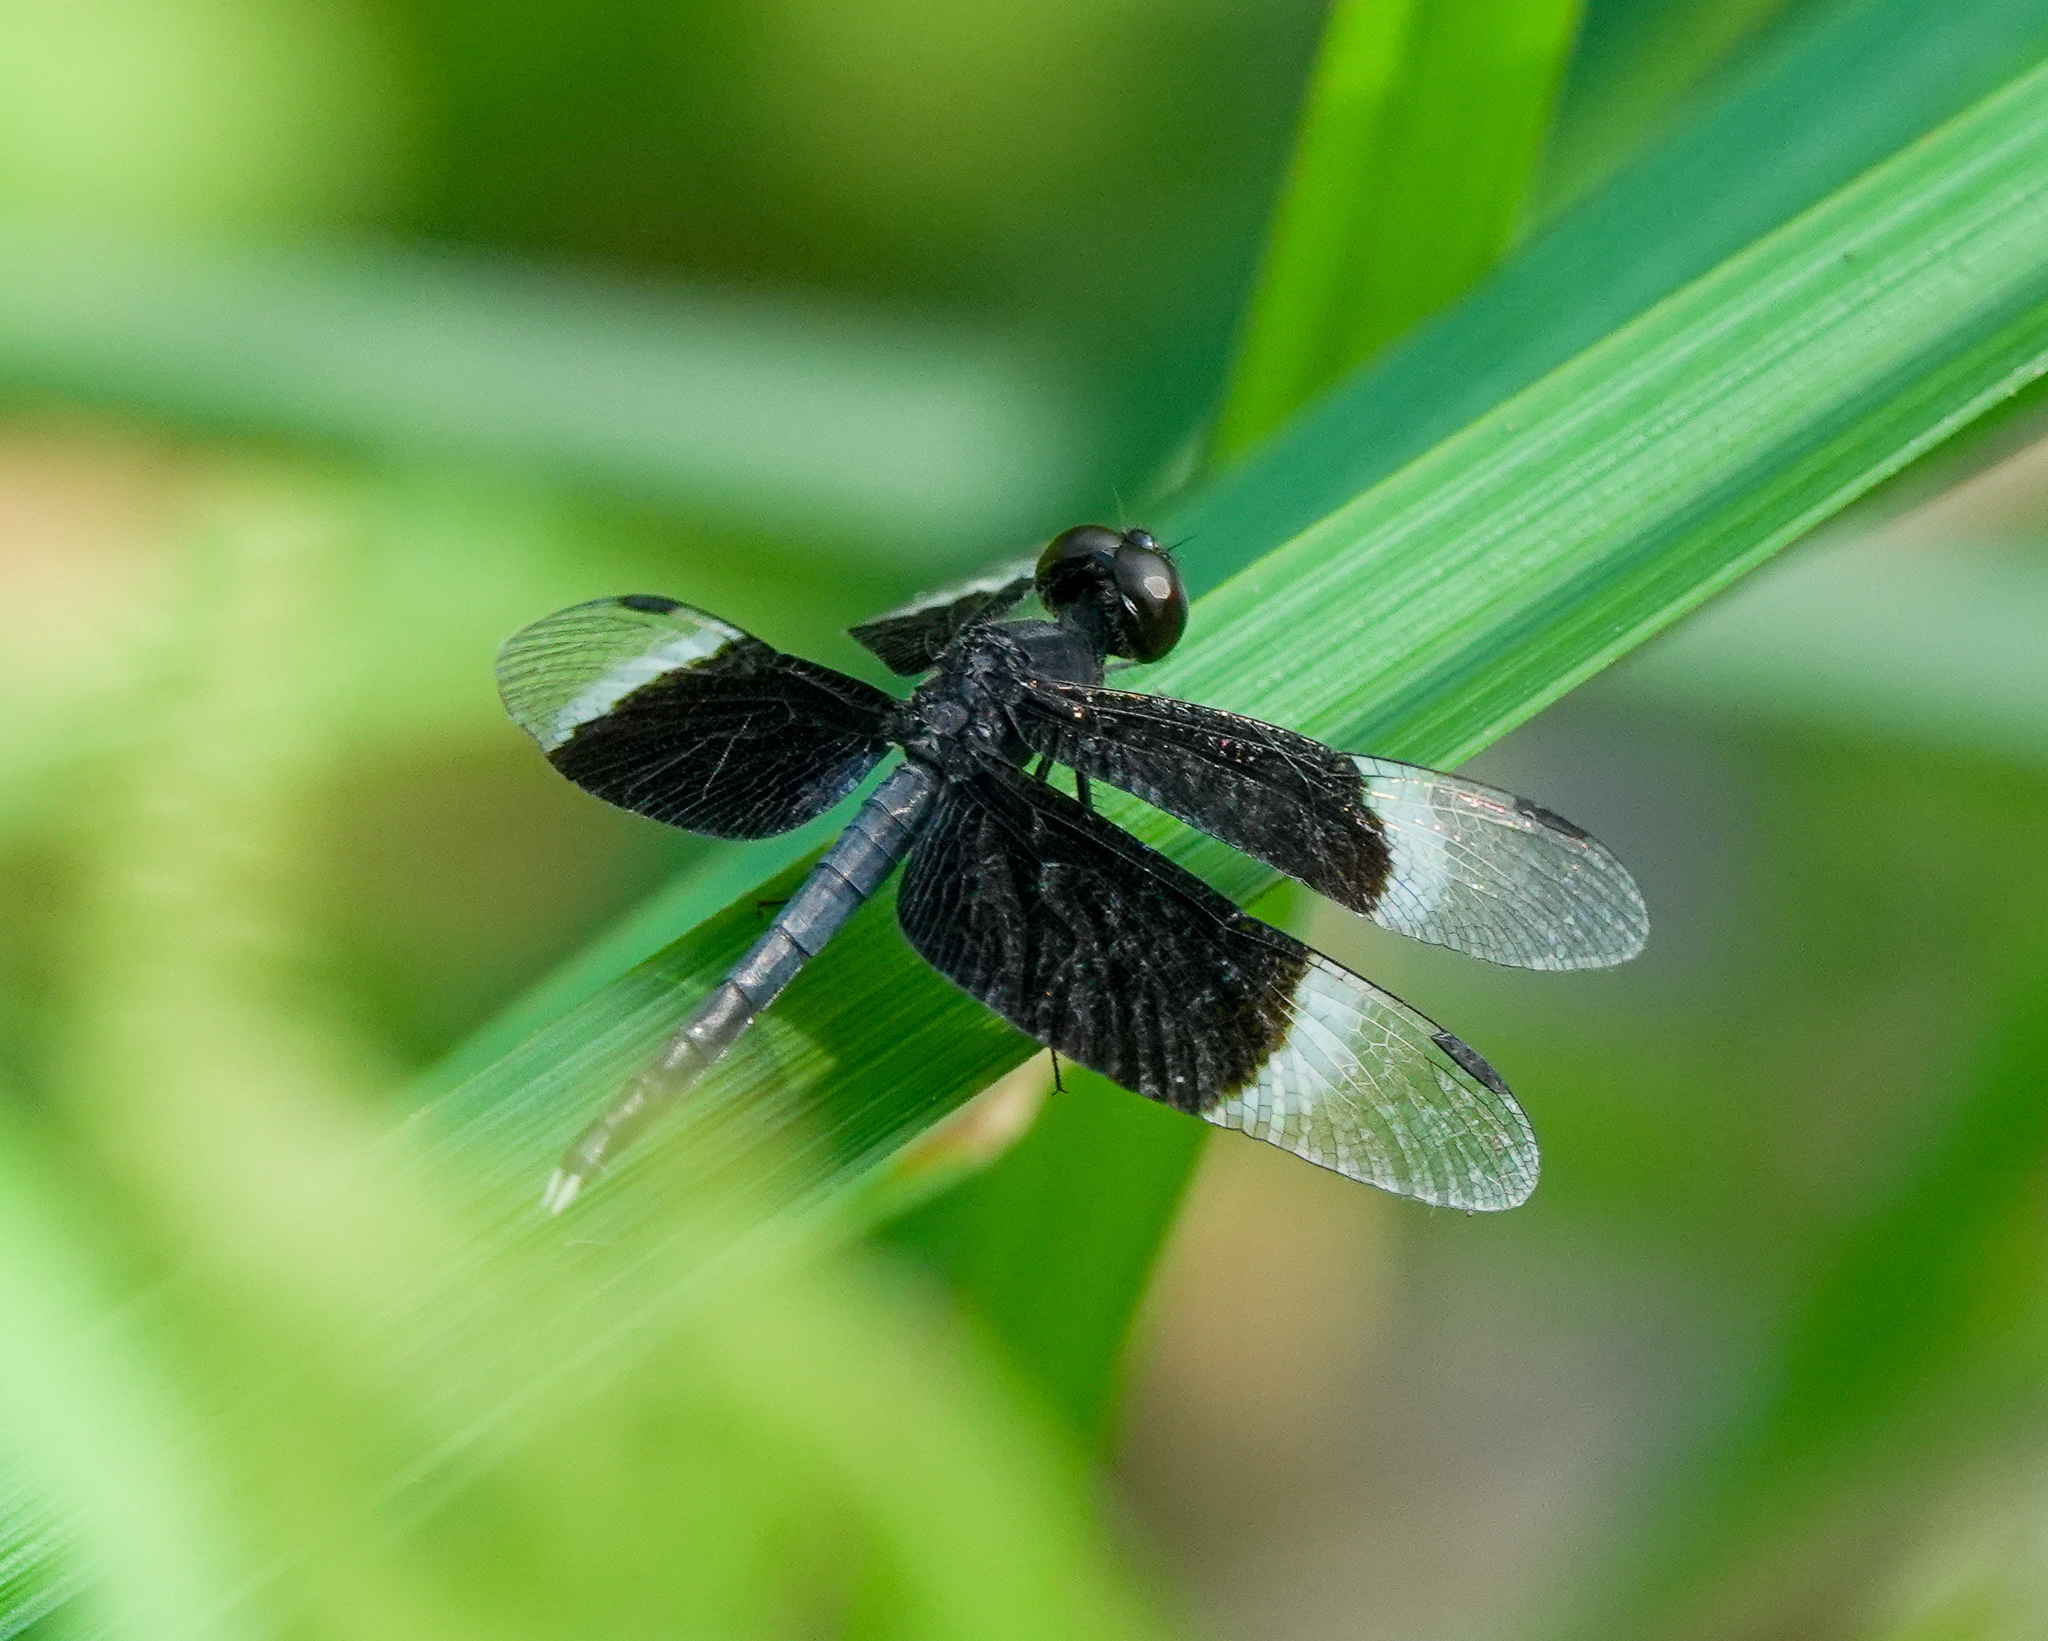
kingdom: Animalia
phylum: Arthropoda
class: Insecta
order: Odonata
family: Libellulidae
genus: Neurothemis
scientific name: Neurothemis tullia
